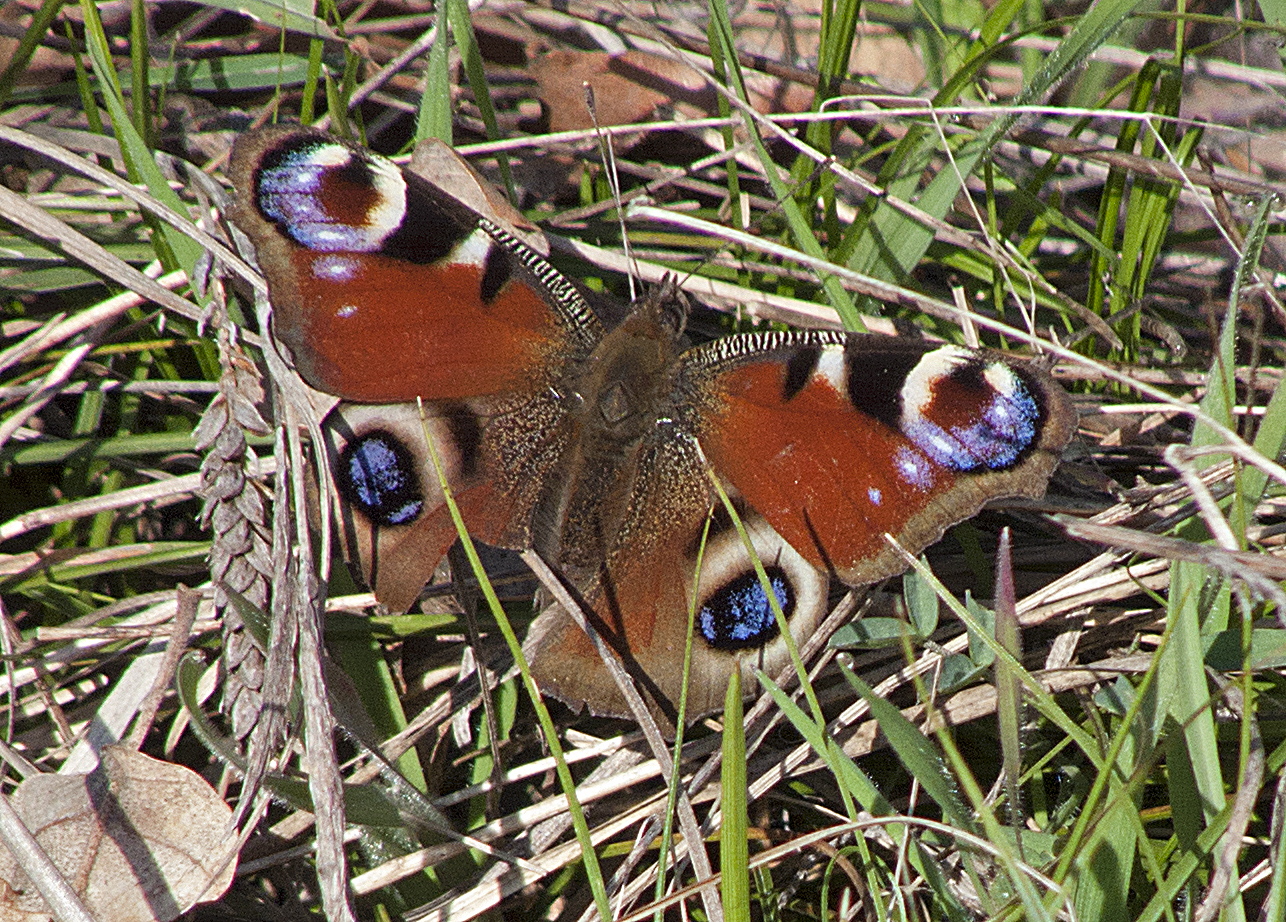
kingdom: Animalia
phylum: Arthropoda
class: Insecta
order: Lepidoptera
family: Nymphalidae
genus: Aglais
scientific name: Aglais io
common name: Peacock
